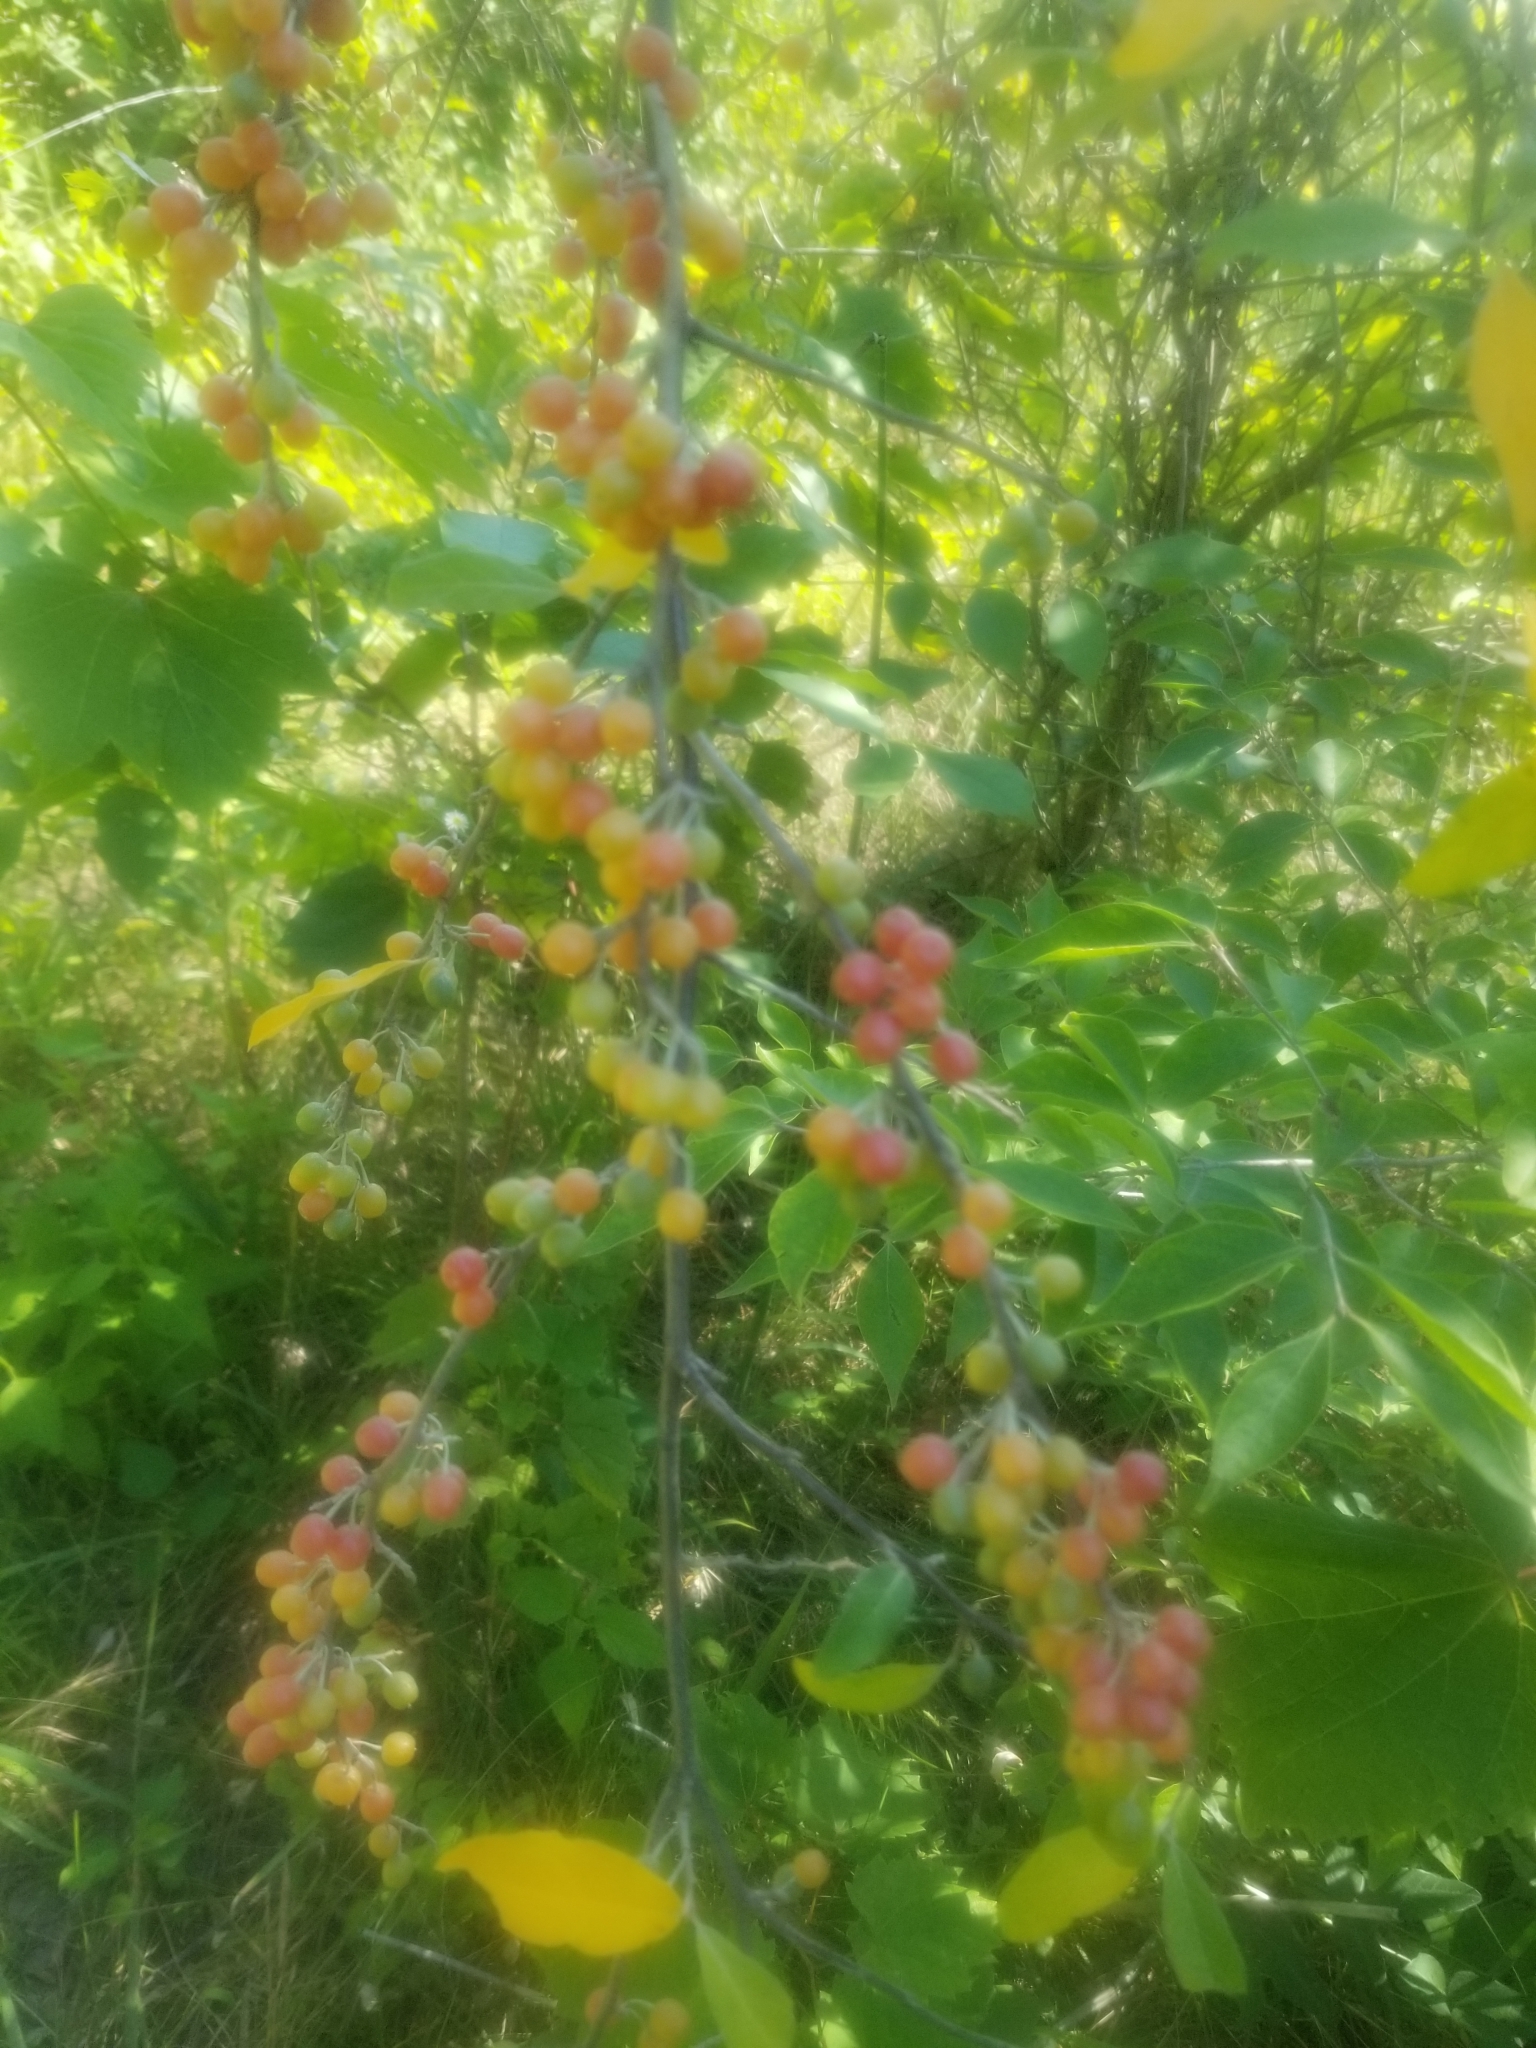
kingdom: Plantae
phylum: Tracheophyta
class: Magnoliopsida
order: Rosales
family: Elaeagnaceae
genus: Elaeagnus
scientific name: Elaeagnus umbellata
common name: Autumn olive
